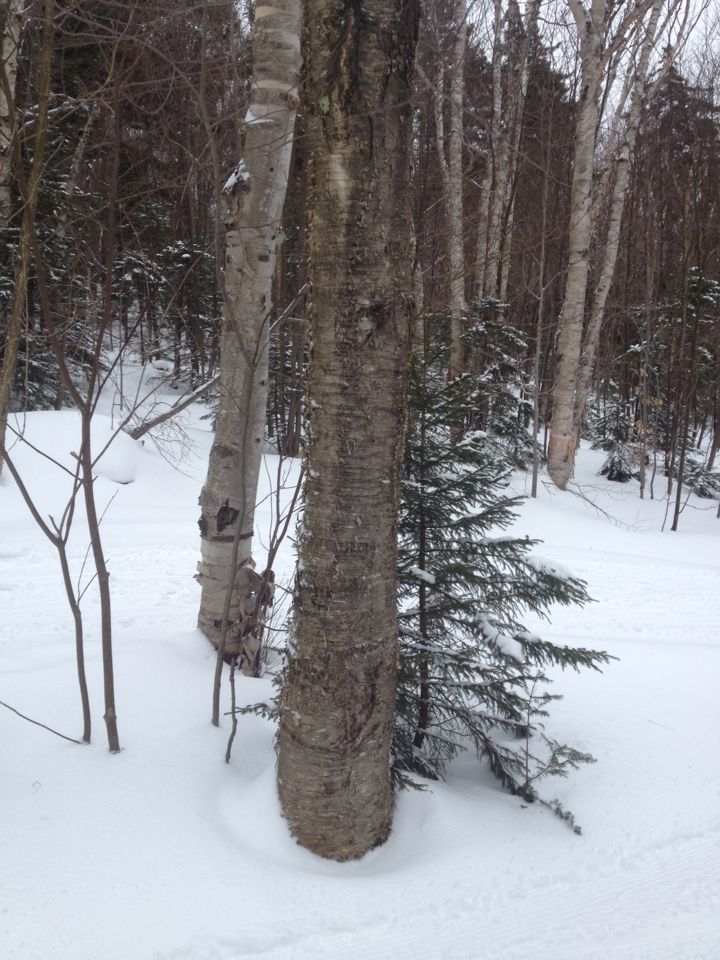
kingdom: Plantae
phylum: Tracheophyta
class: Magnoliopsida
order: Fagales
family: Betulaceae
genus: Betula
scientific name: Betula alleghaniensis
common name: Yellow birch
